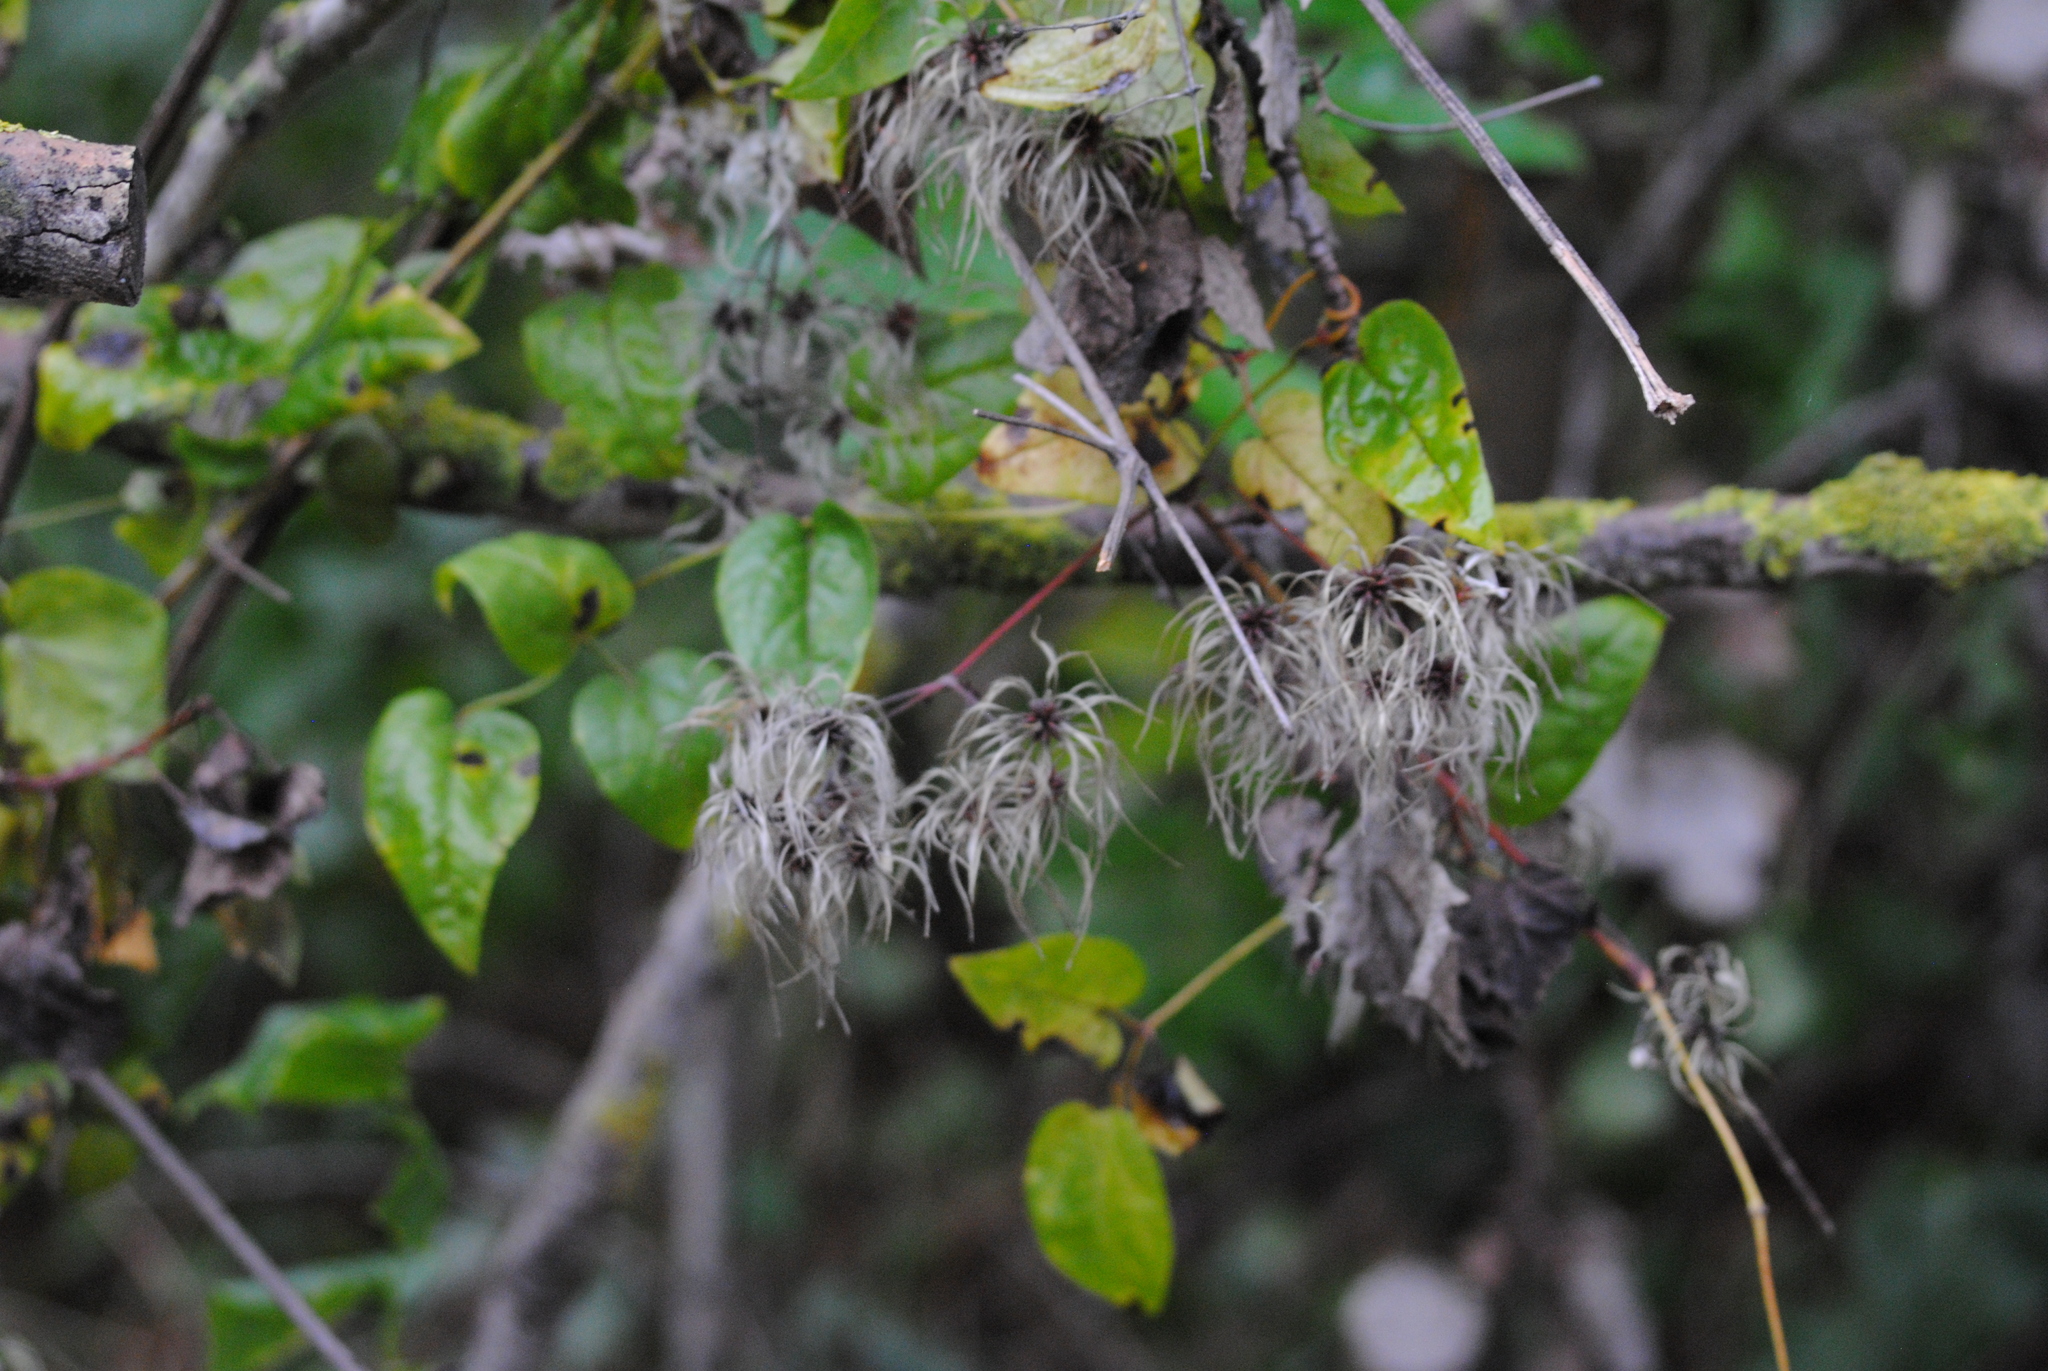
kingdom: Plantae
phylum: Tracheophyta
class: Magnoliopsida
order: Ranunculales
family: Ranunculaceae
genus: Clematis
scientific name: Clematis vitalba
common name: Evergreen clematis
